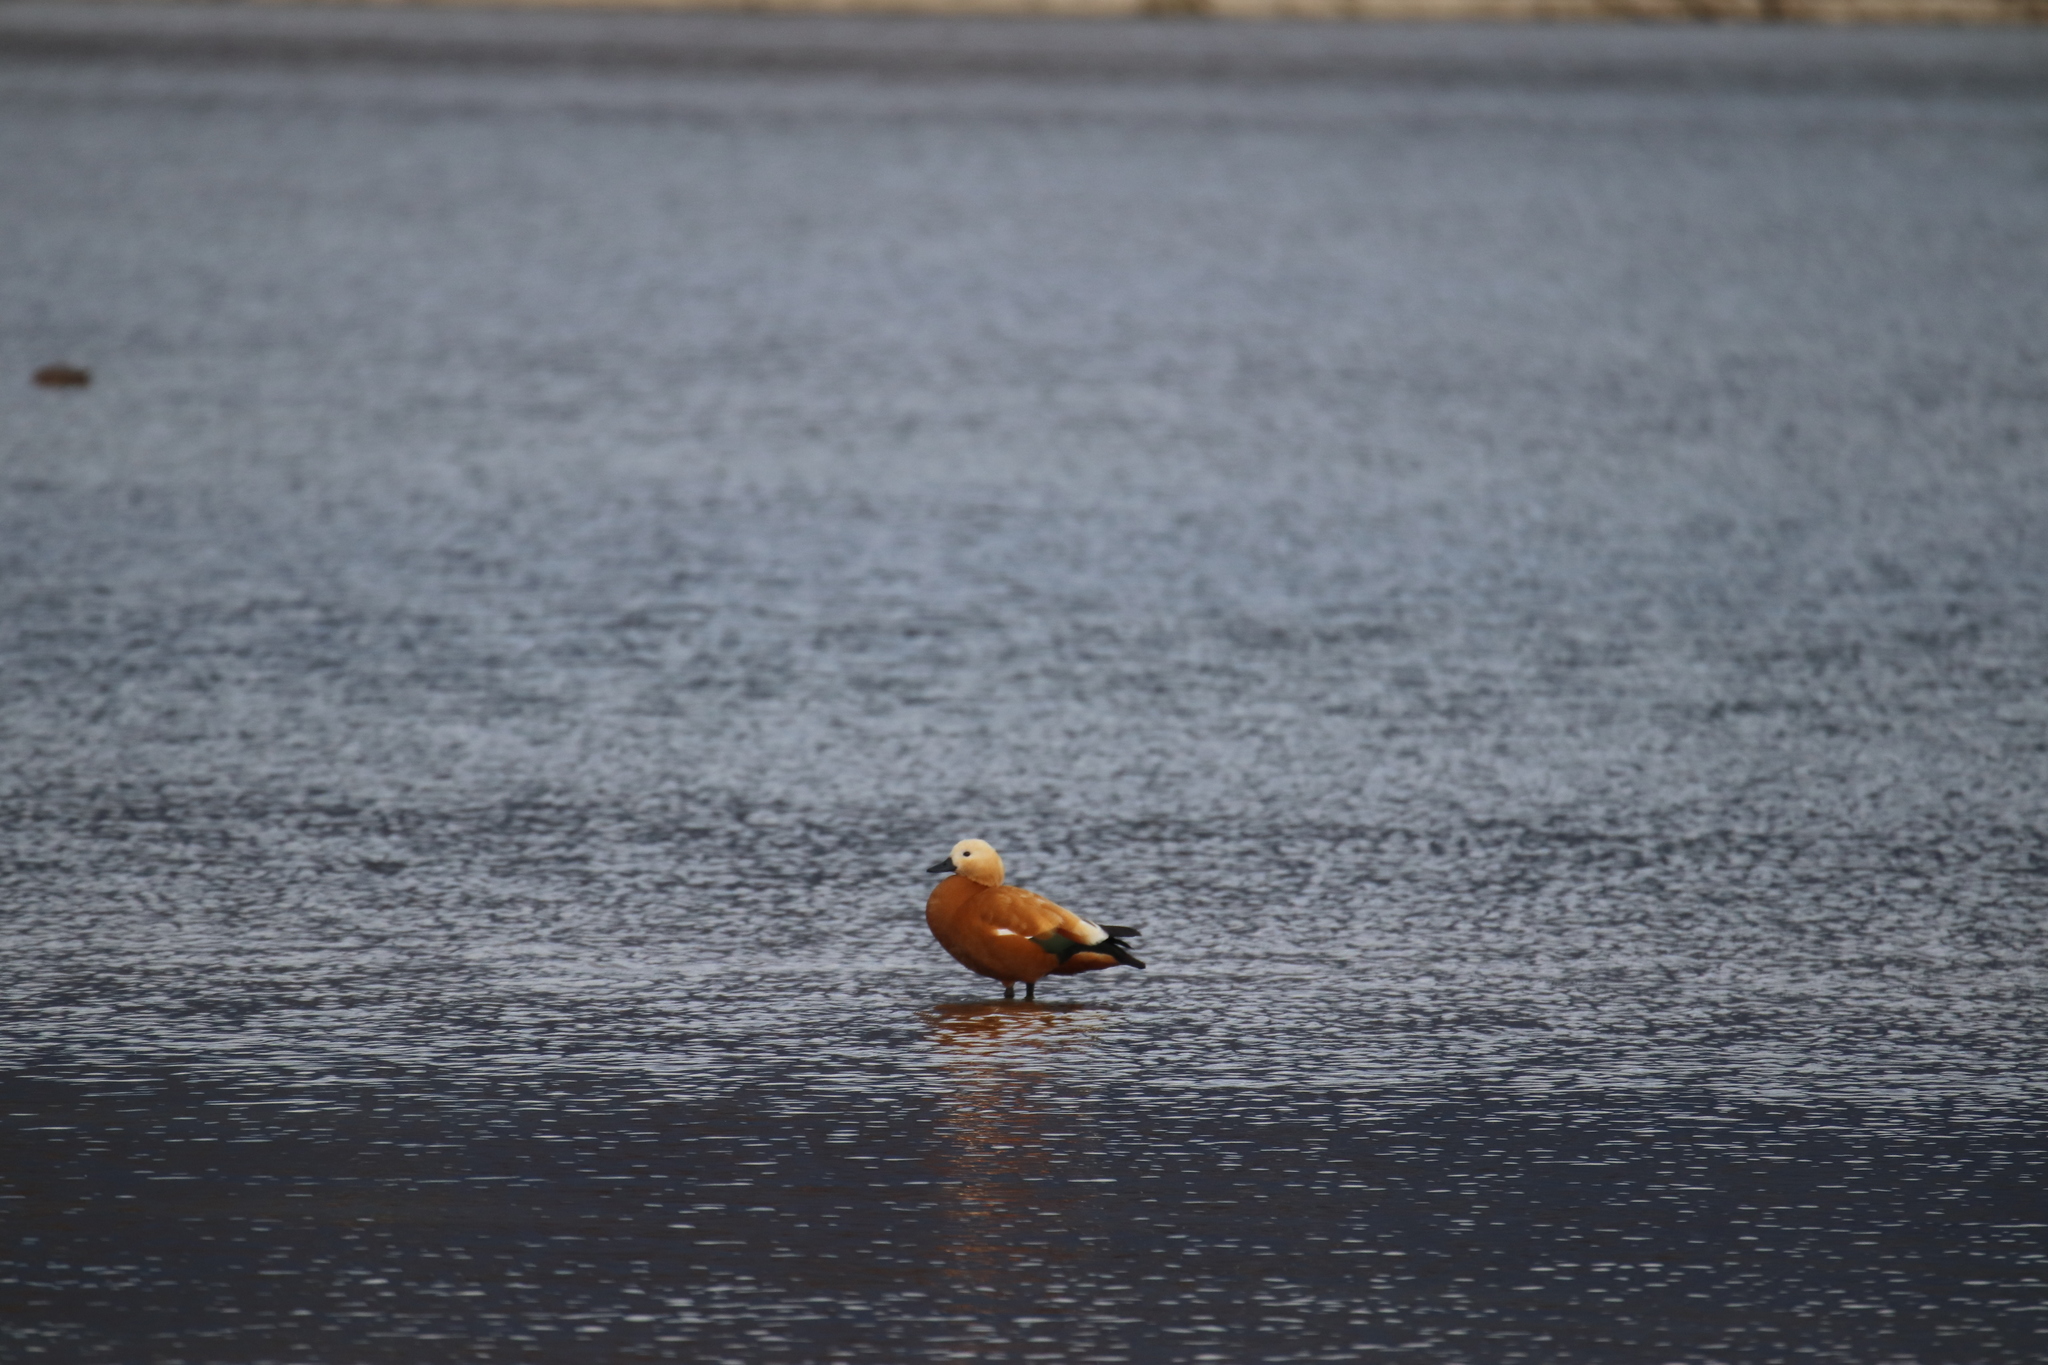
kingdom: Animalia
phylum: Chordata
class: Aves
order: Anseriformes
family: Anatidae
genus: Tadorna
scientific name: Tadorna ferruginea
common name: Ruddy shelduck
